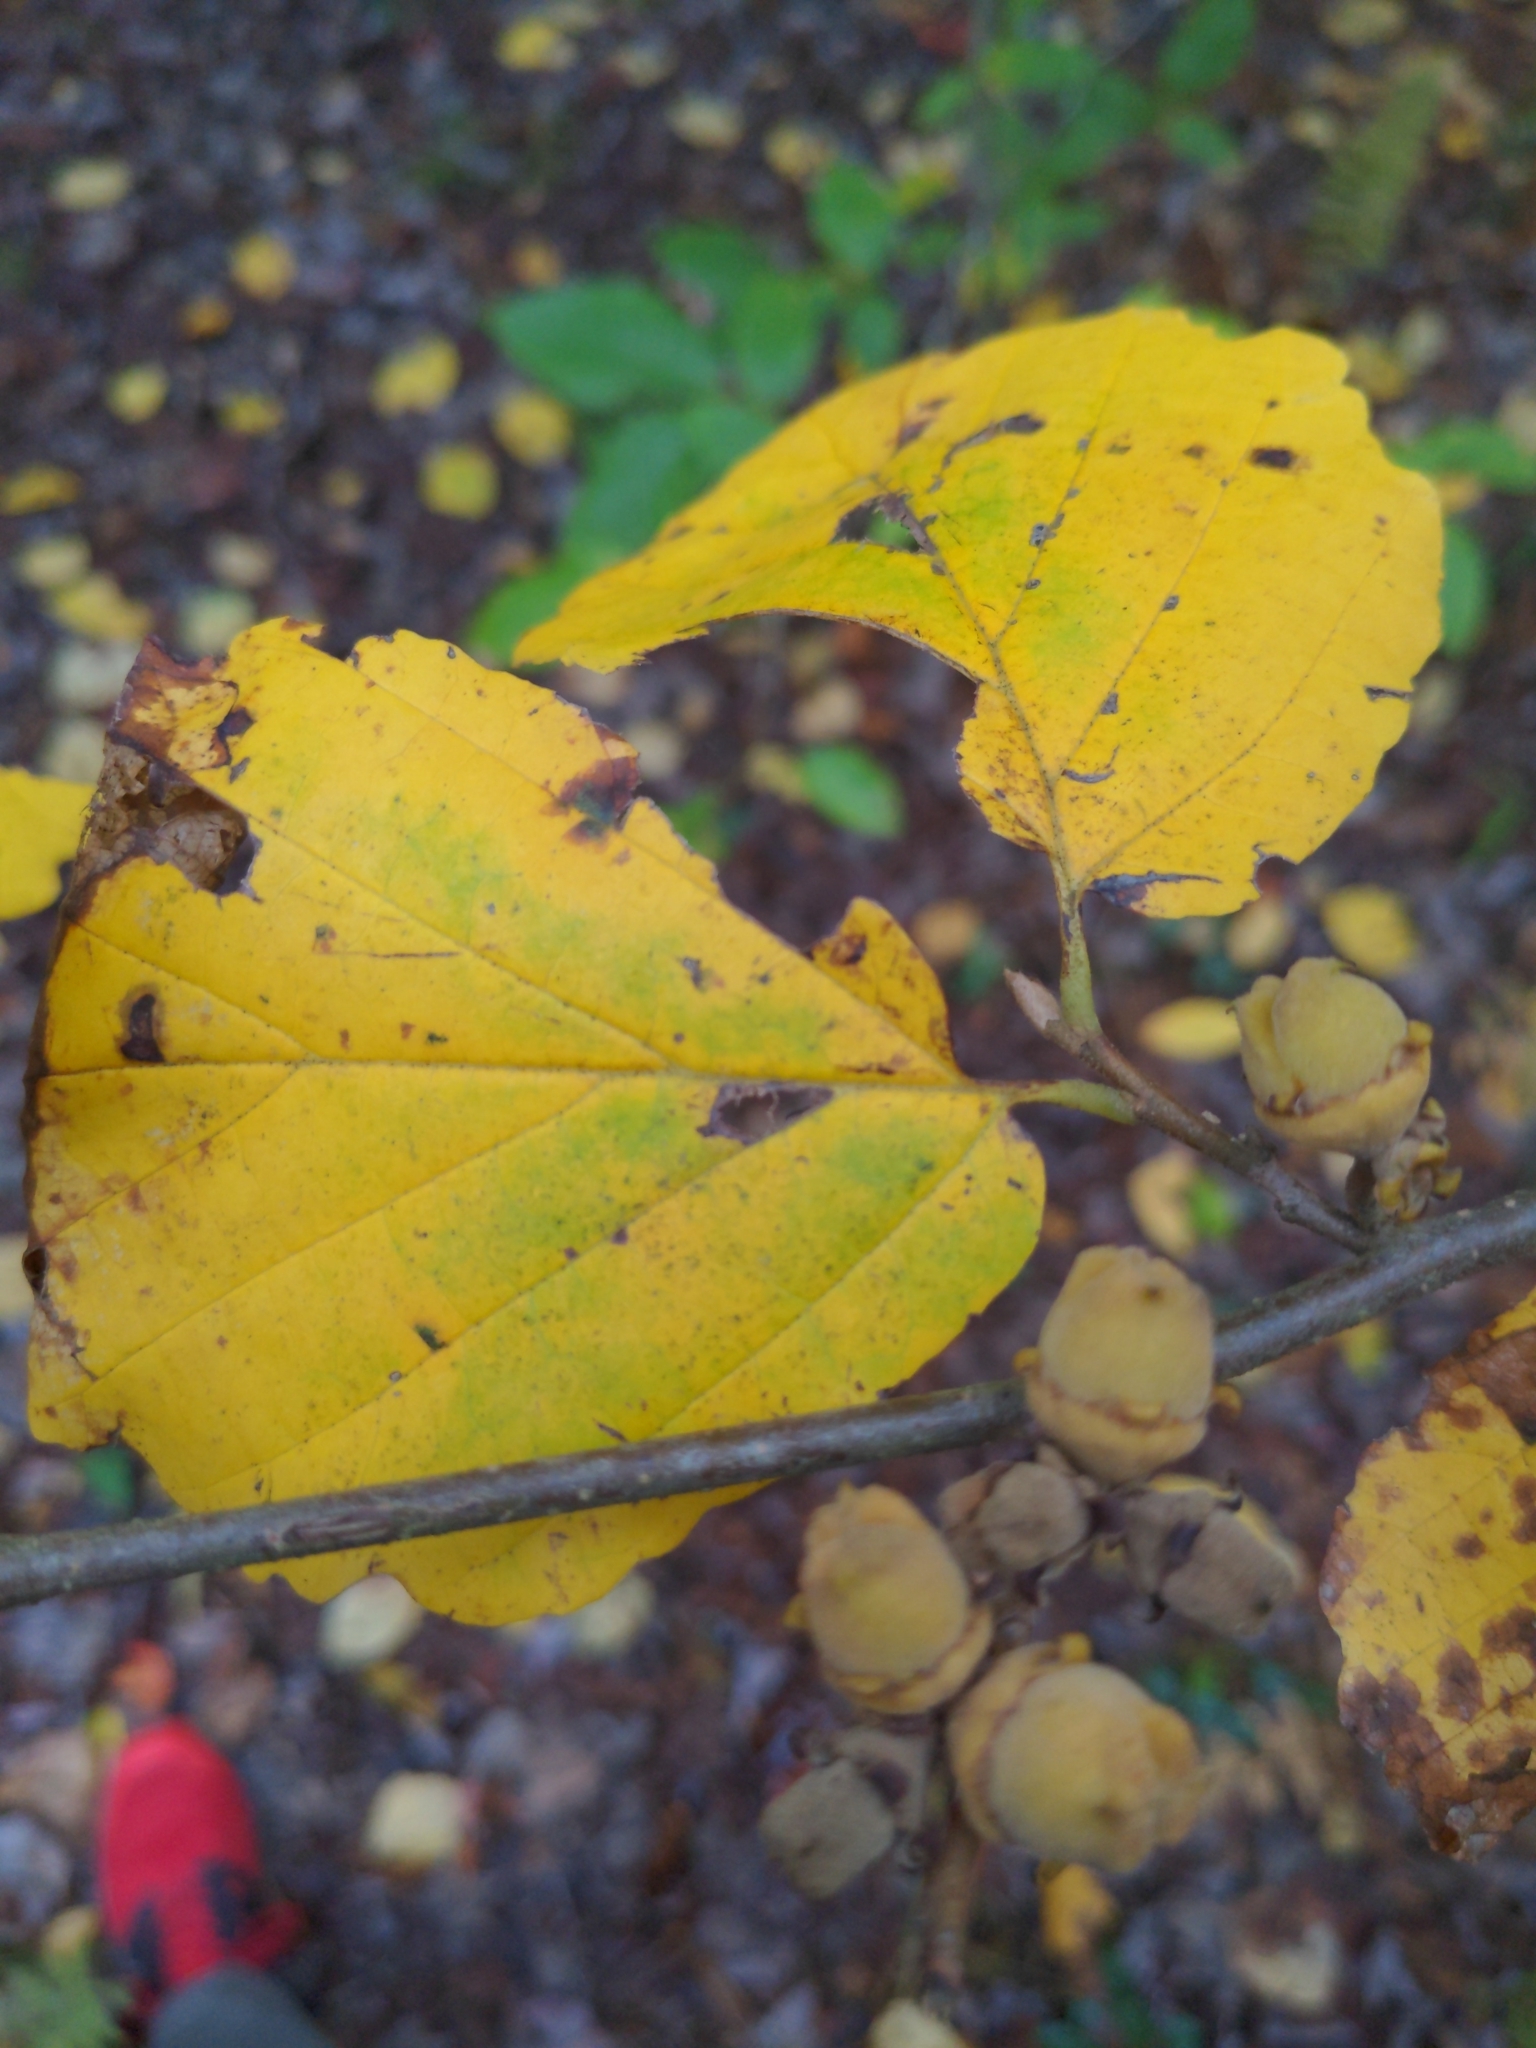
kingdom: Plantae
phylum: Tracheophyta
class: Magnoliopsida
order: Saxifragales
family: Hamamelidaceae
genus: Hamamelis
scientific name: Hamamelis virginiana
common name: Witch-hazel
